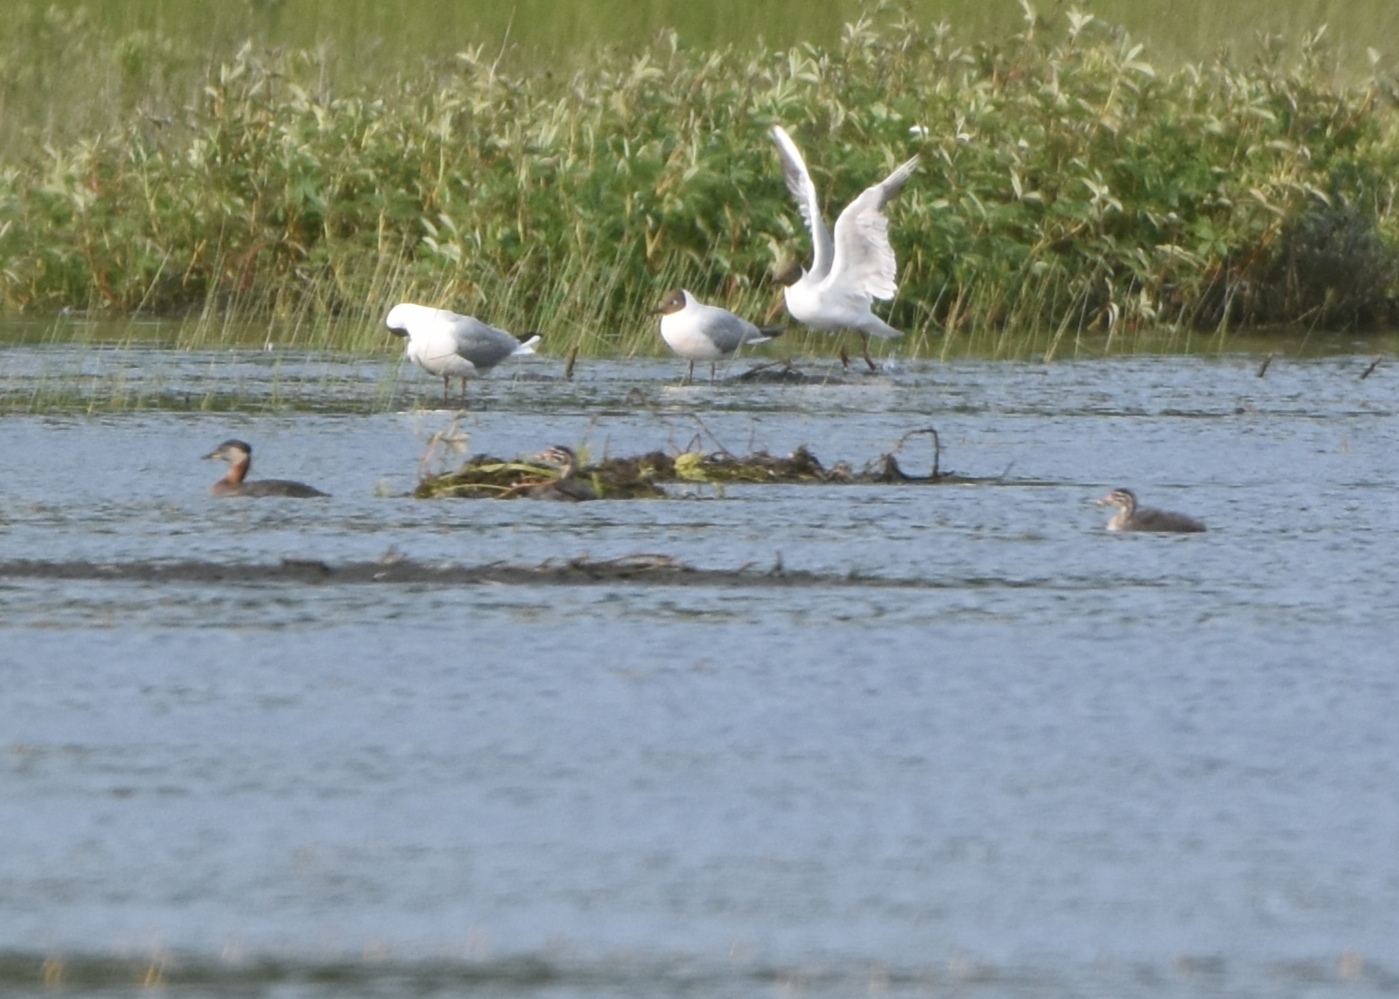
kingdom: Animalia
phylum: Chordata
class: Aves
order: Podicipediformes
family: Podicipedidae
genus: Podiceps
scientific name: Podiceps grisegena
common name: Red-necked grebe
